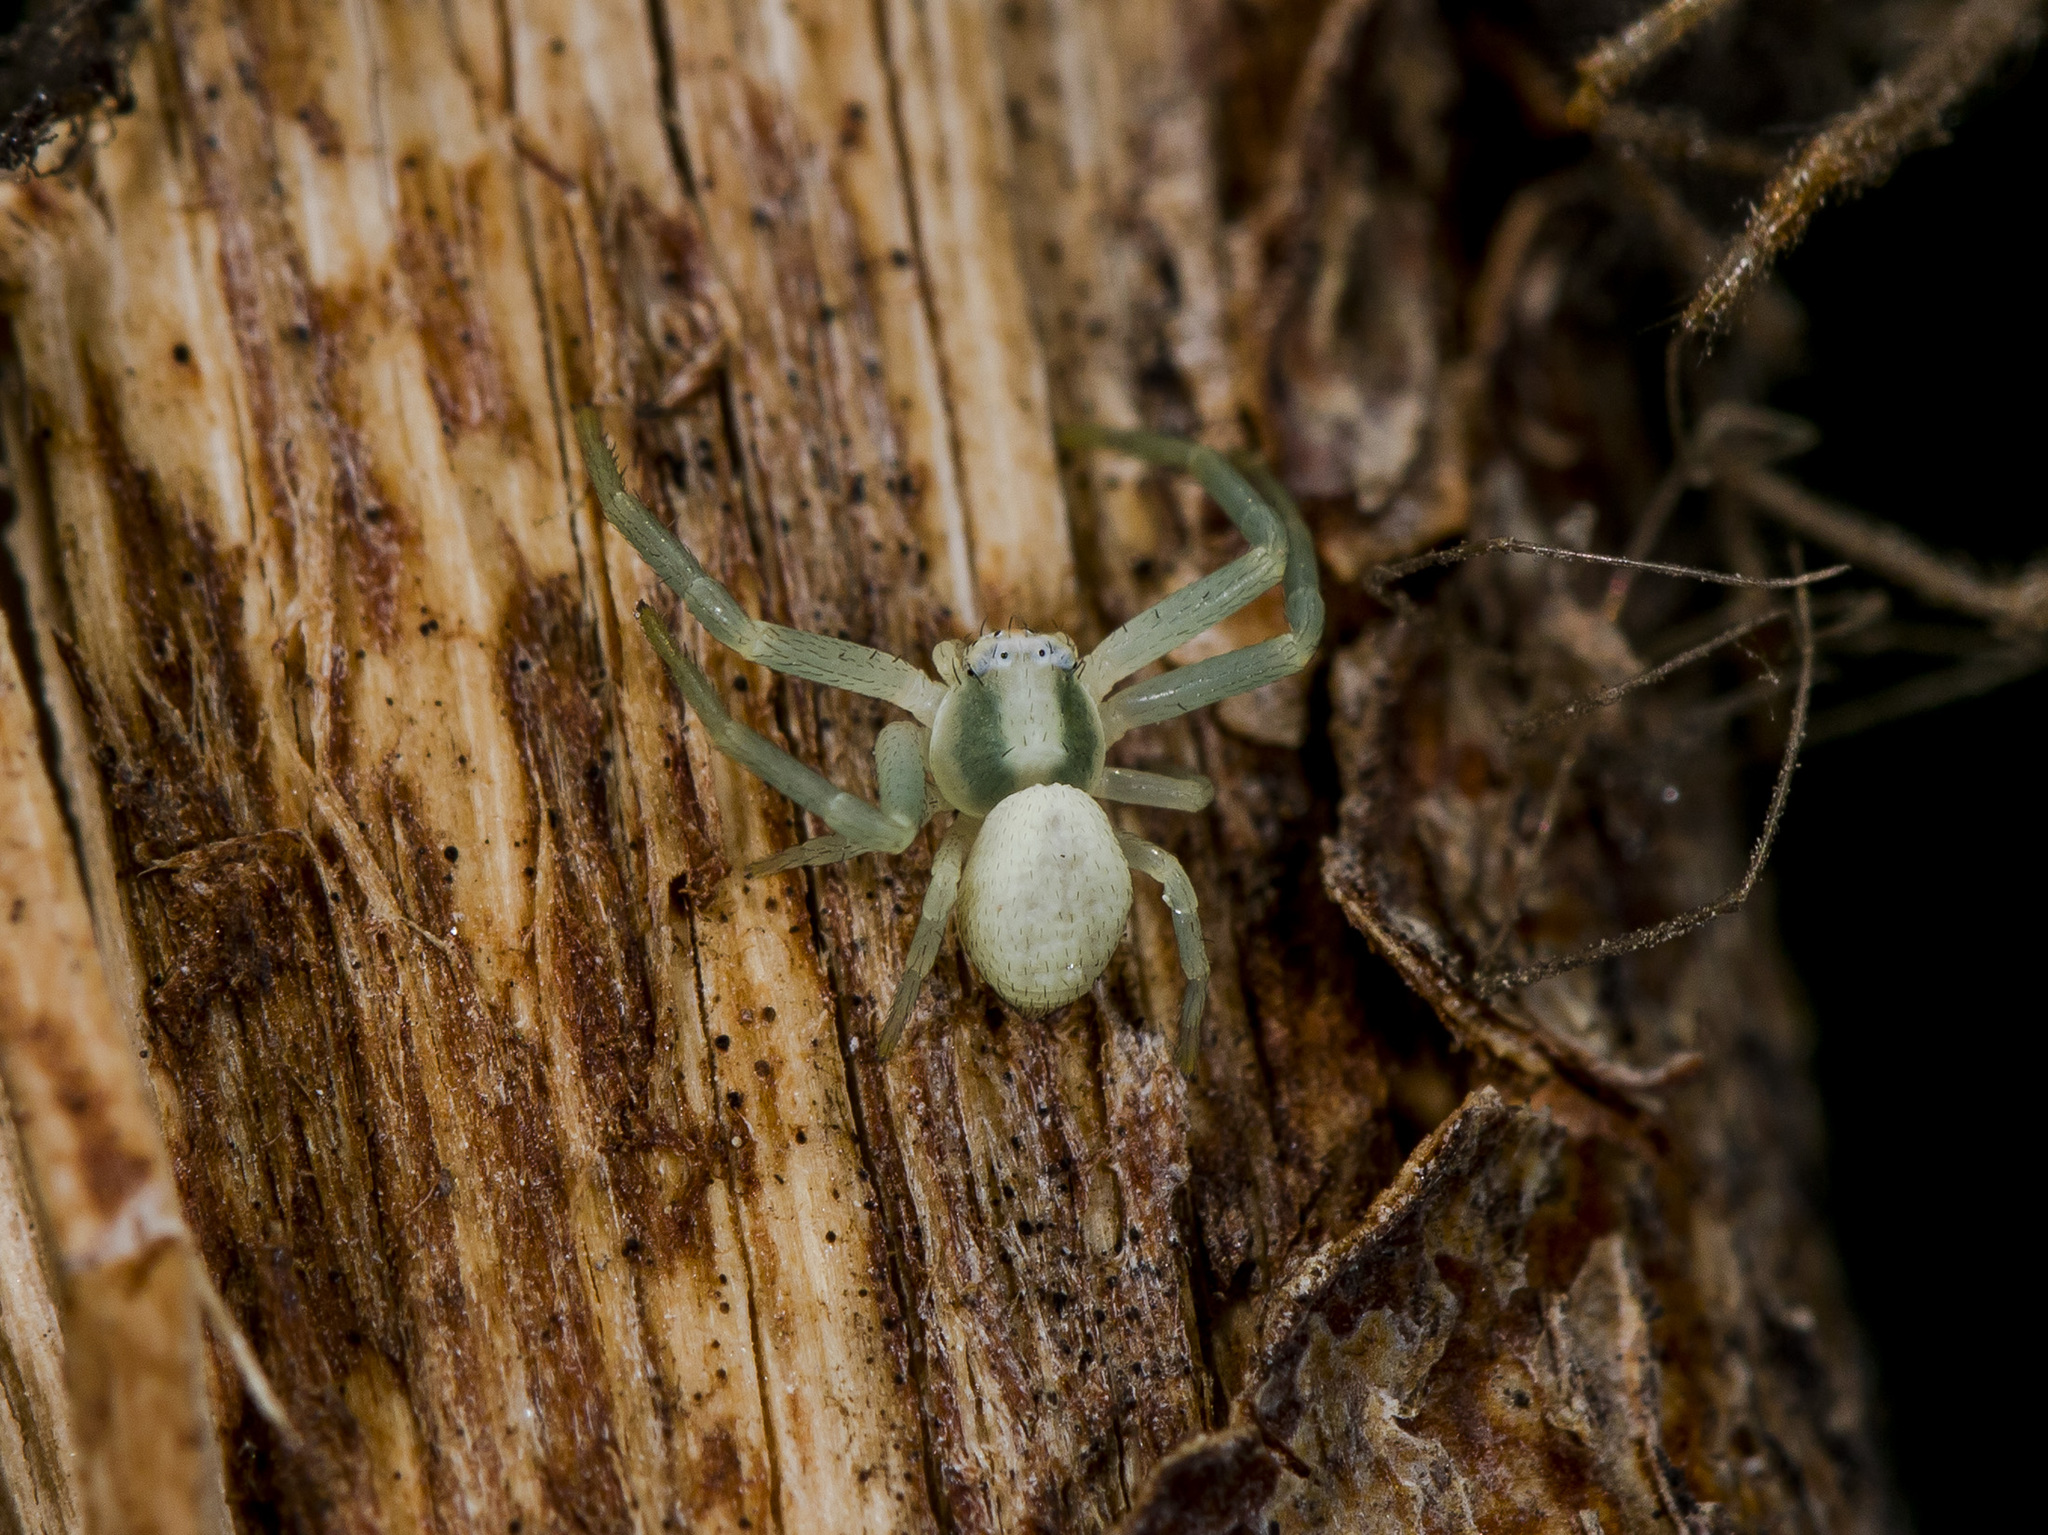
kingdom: Animalia
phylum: Arthropoda
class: Arachnida
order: Araneae
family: Thomisidae
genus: Misumena
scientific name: Misumena vatia
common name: Goldenrod crab spider
